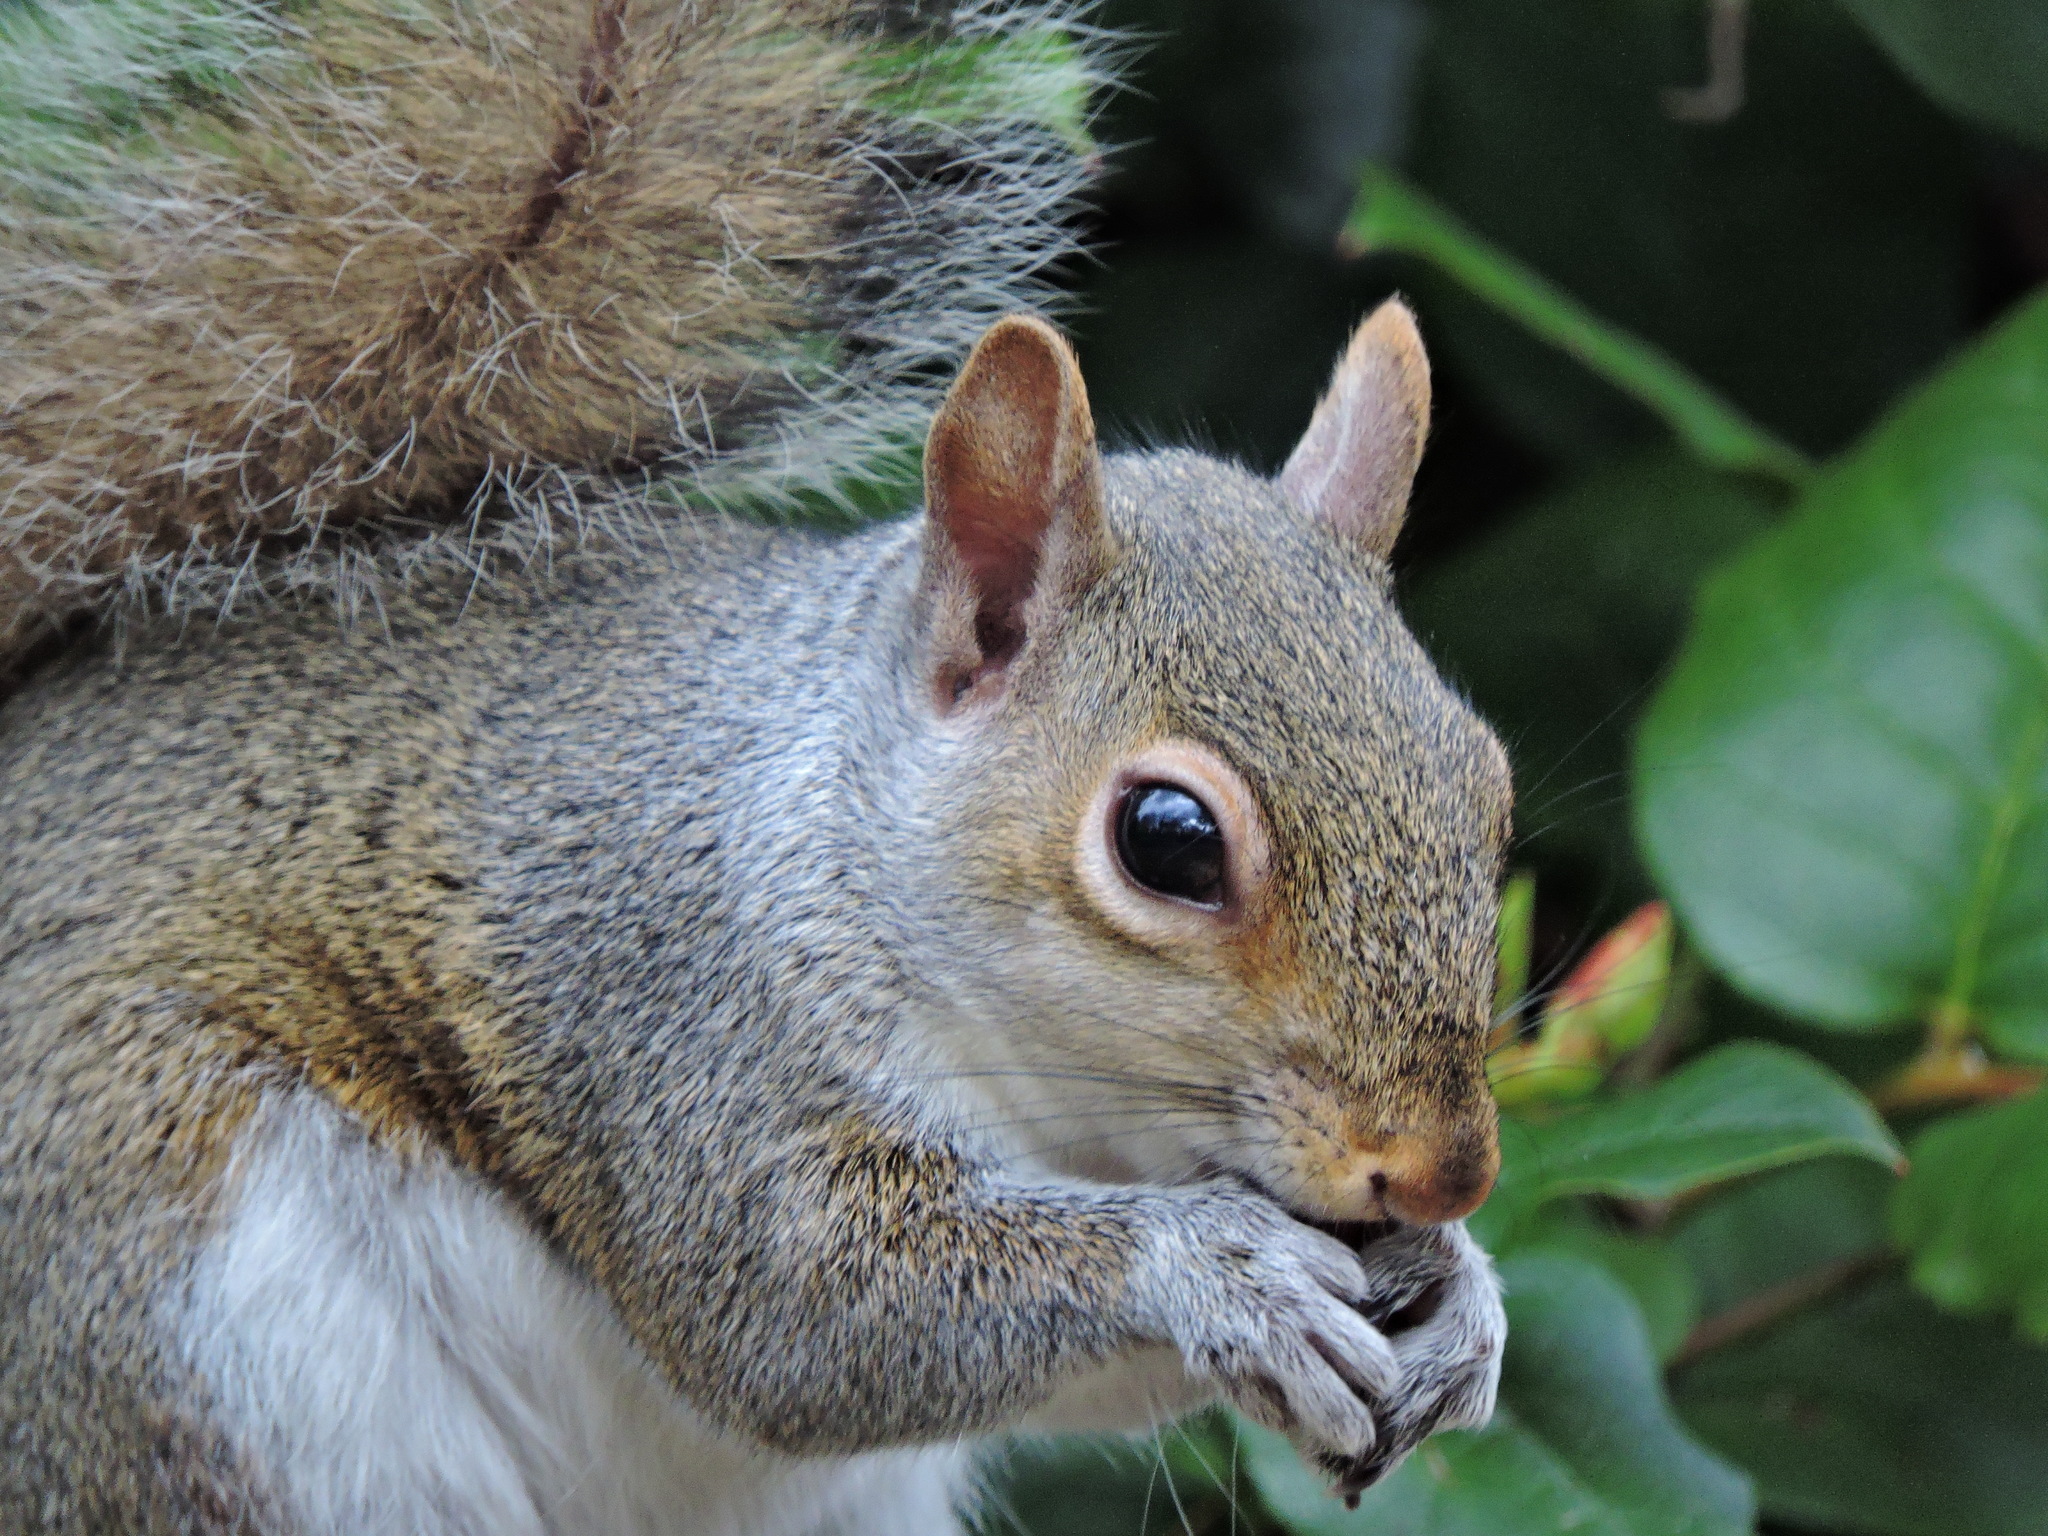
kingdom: Animalia
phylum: Chordata
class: Mammalia
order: Rodentia
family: Sciuridae
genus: Sciurus
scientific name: Sciurus carolinensis
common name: Eastern gray squirrel
